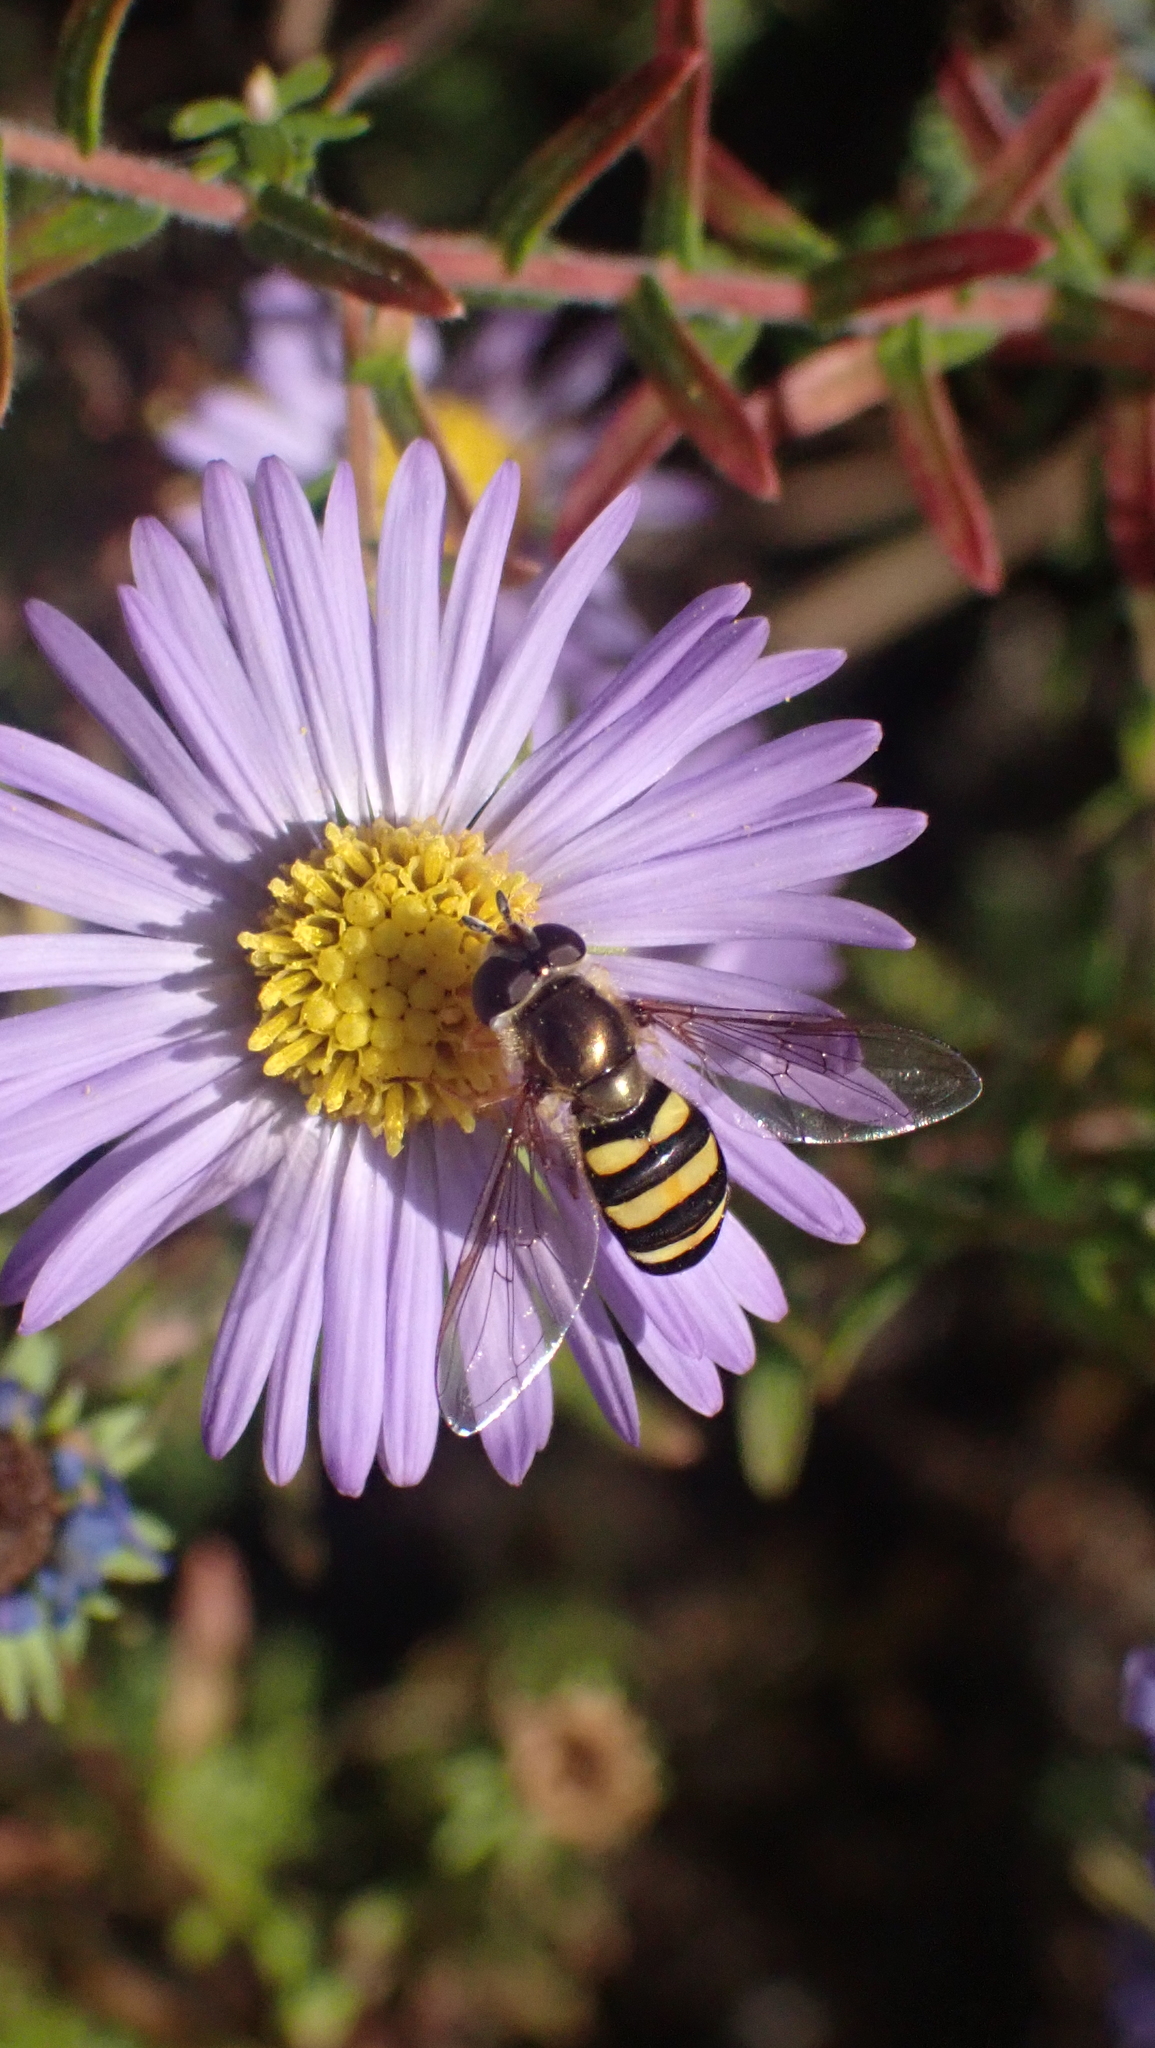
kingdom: Animalia
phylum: Arthropoda
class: Insecta
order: Diptera
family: Syrphidae
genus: Eupeodes
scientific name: Eupeodes
